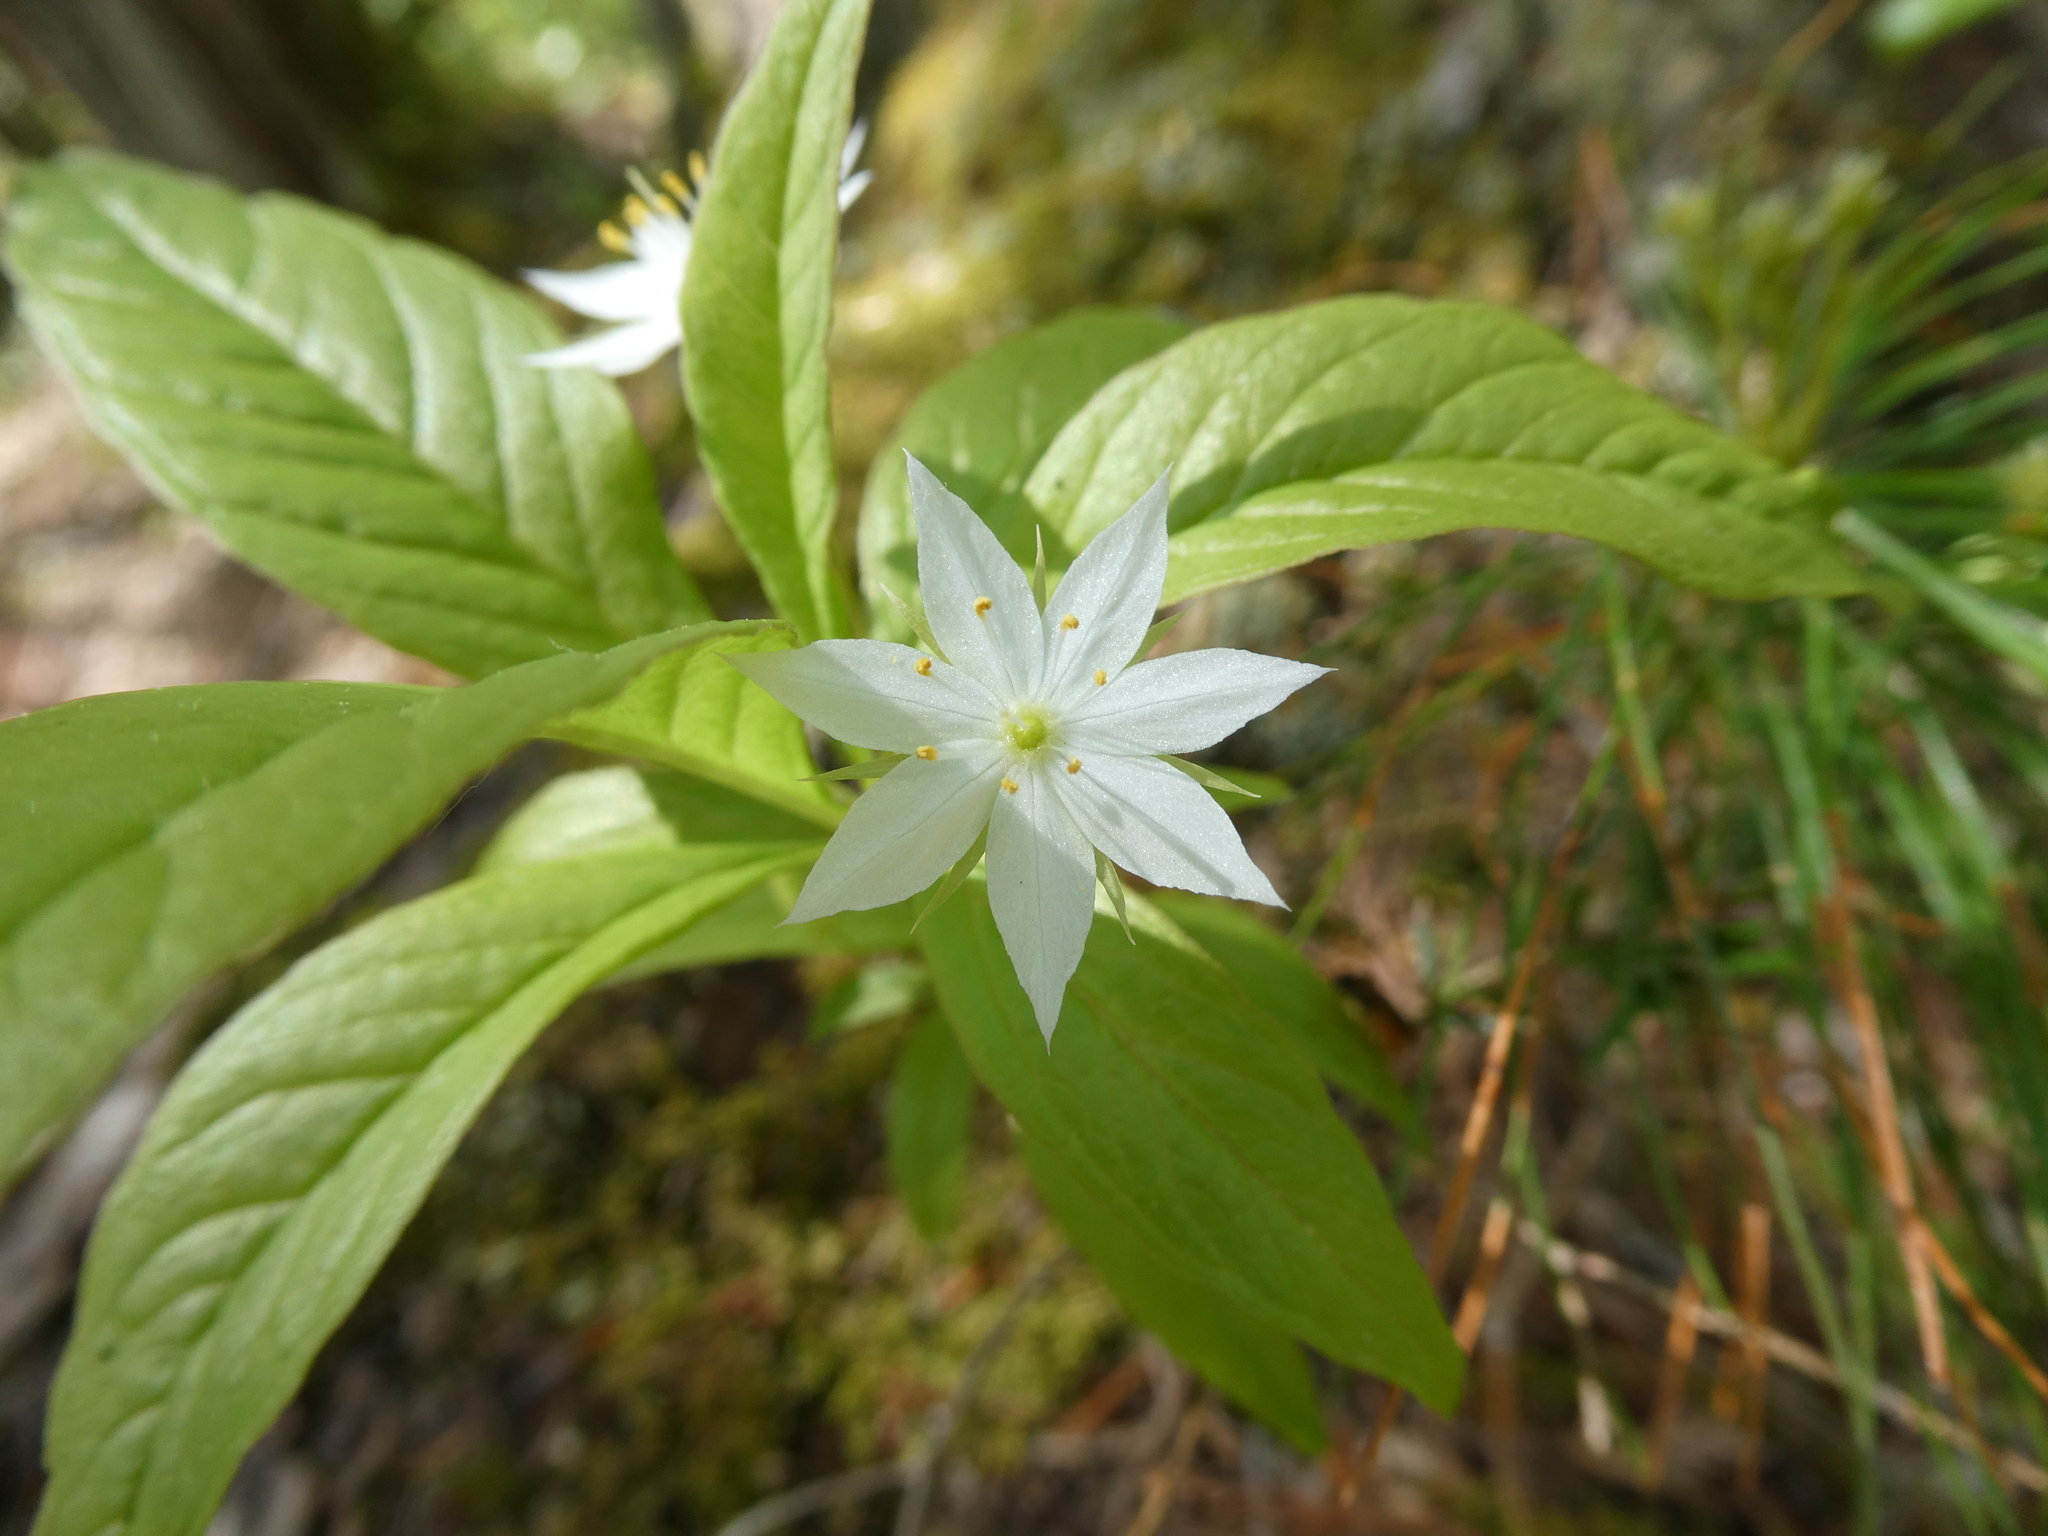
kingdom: Plantae
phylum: Tracheophyta
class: Magnoliopsida
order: Ericales
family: Primulaceae
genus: Lysimachia
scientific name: Lysimachia borealis
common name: American starflower
